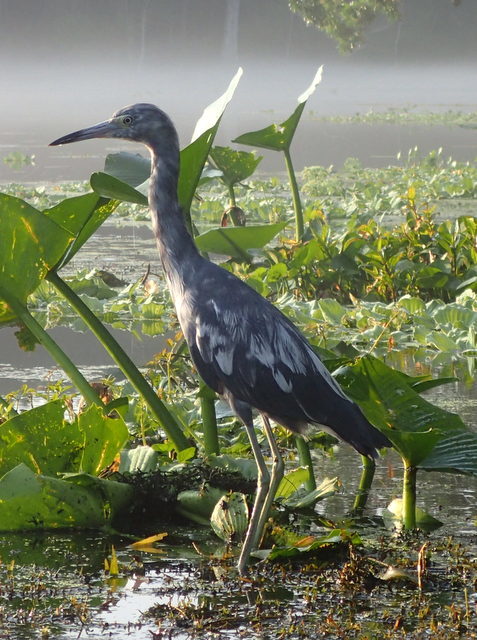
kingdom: Animalia
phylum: Chordata
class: Aves
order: Pelecaniformes
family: Ardeidae
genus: Egretta
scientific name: Egretta caerulea
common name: Little blue heron
